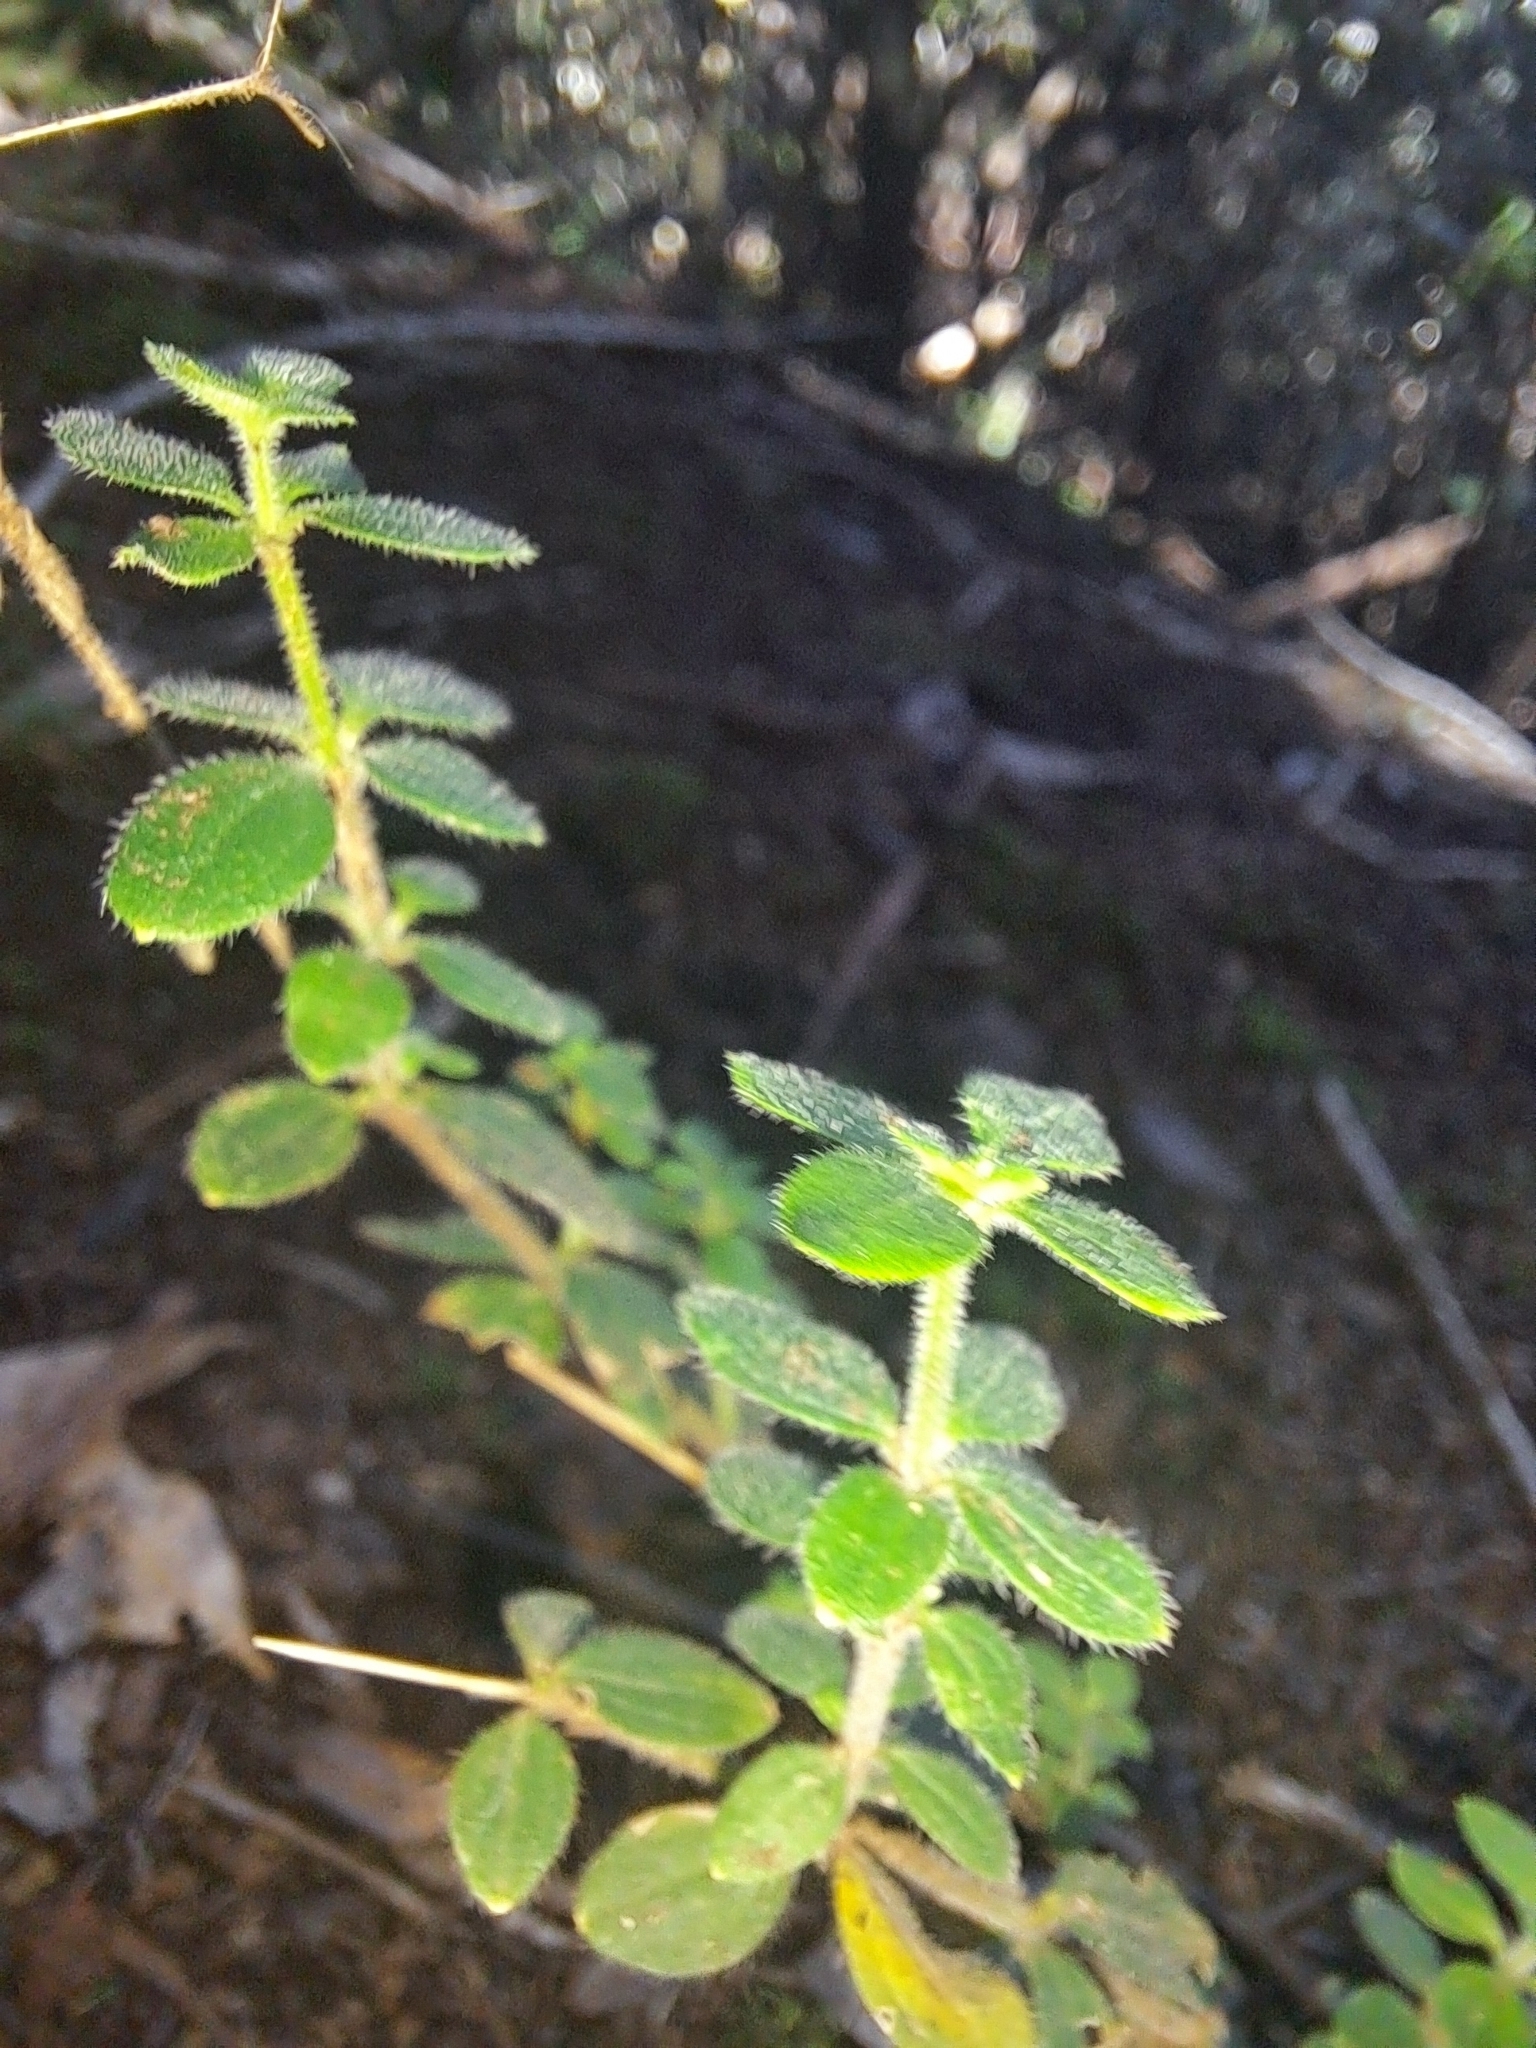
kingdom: Plantae
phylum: Tracheophyta
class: Magnoliopsida
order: Gentianales
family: Rubiaceae
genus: Galium
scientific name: Galium scabrum
